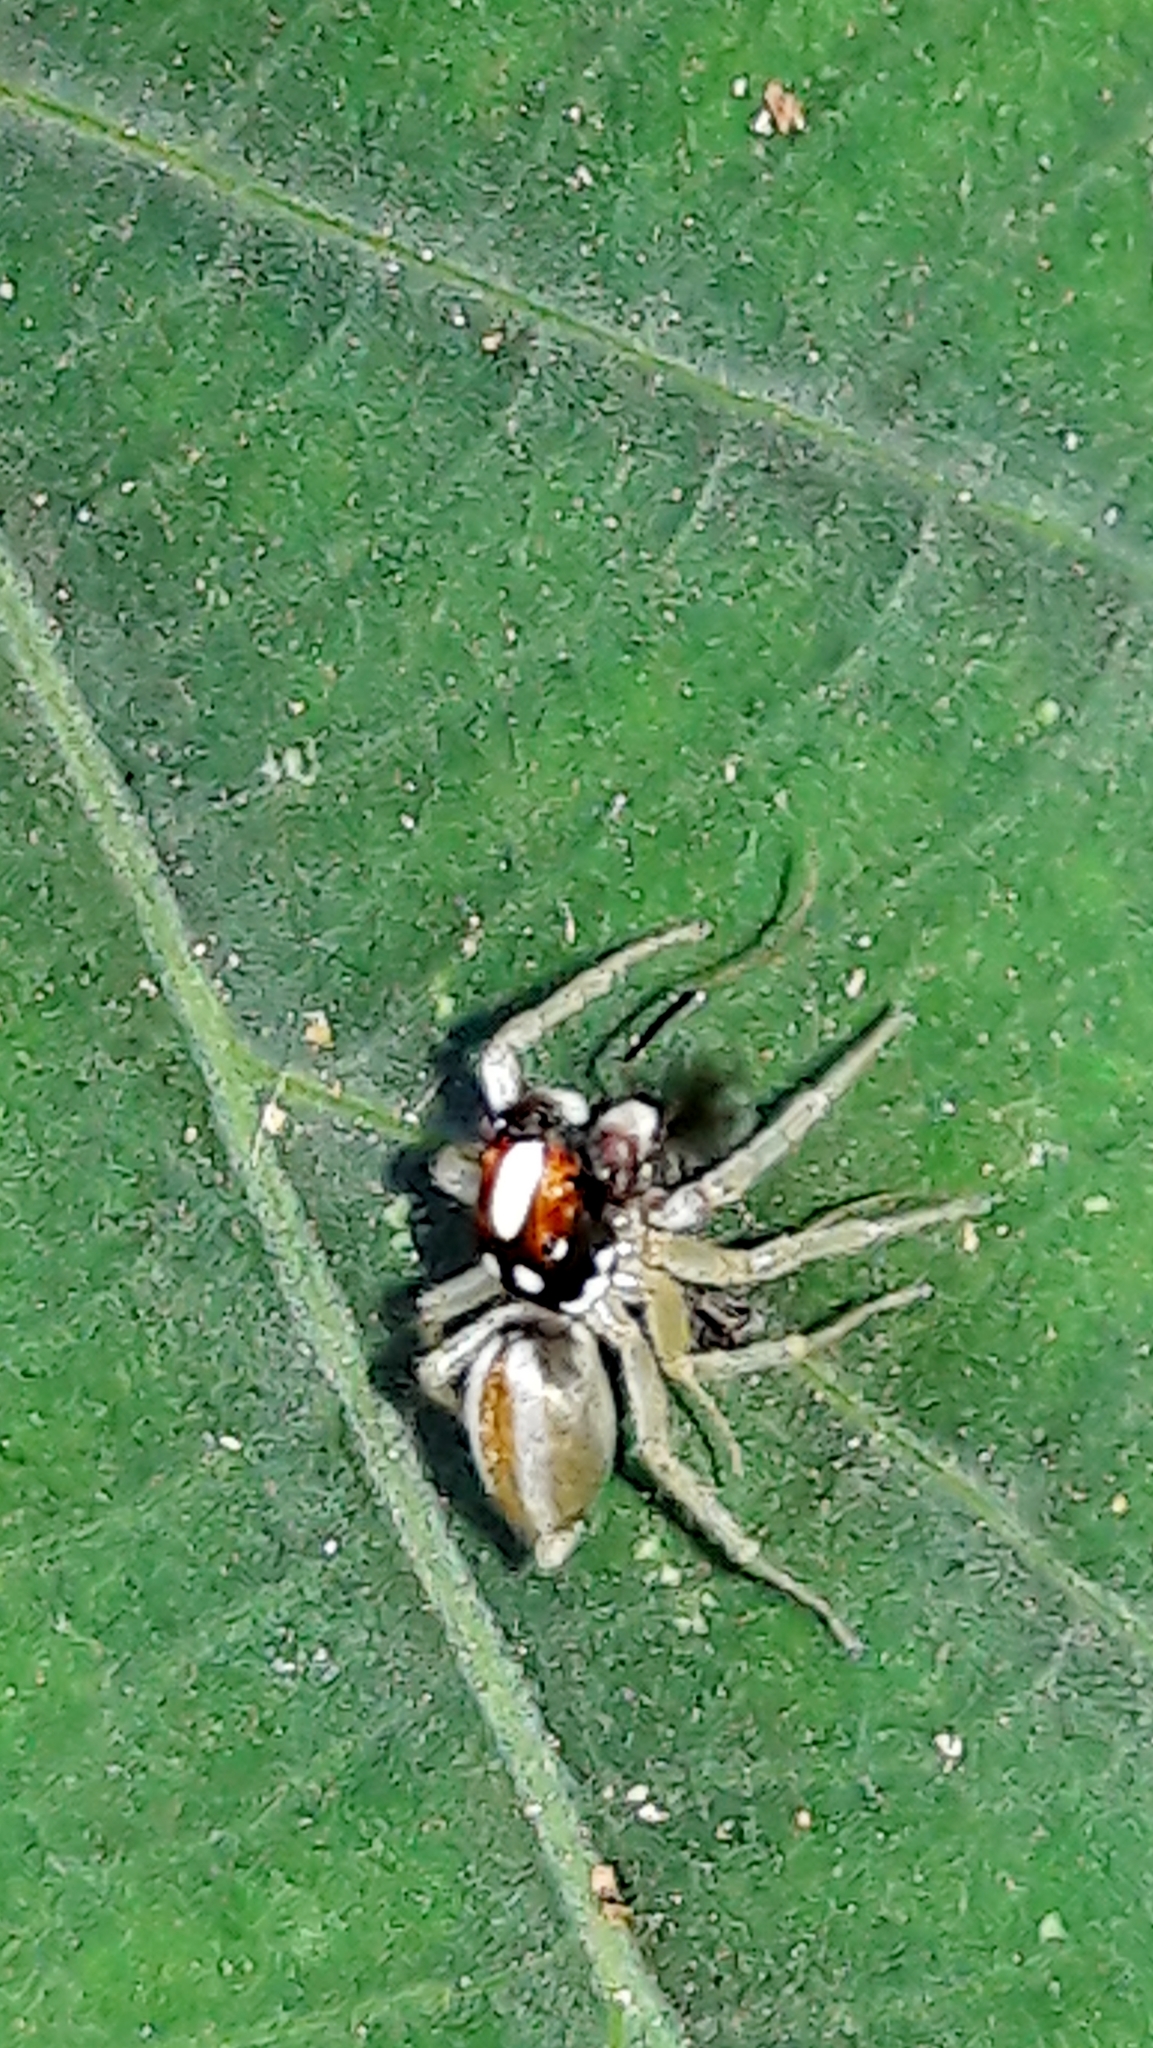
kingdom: Animalia
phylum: Arthropoda
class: Arachnida
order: Araneae
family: Salticidae
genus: Chira
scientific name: Chira spinosa
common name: Jumping spiders
